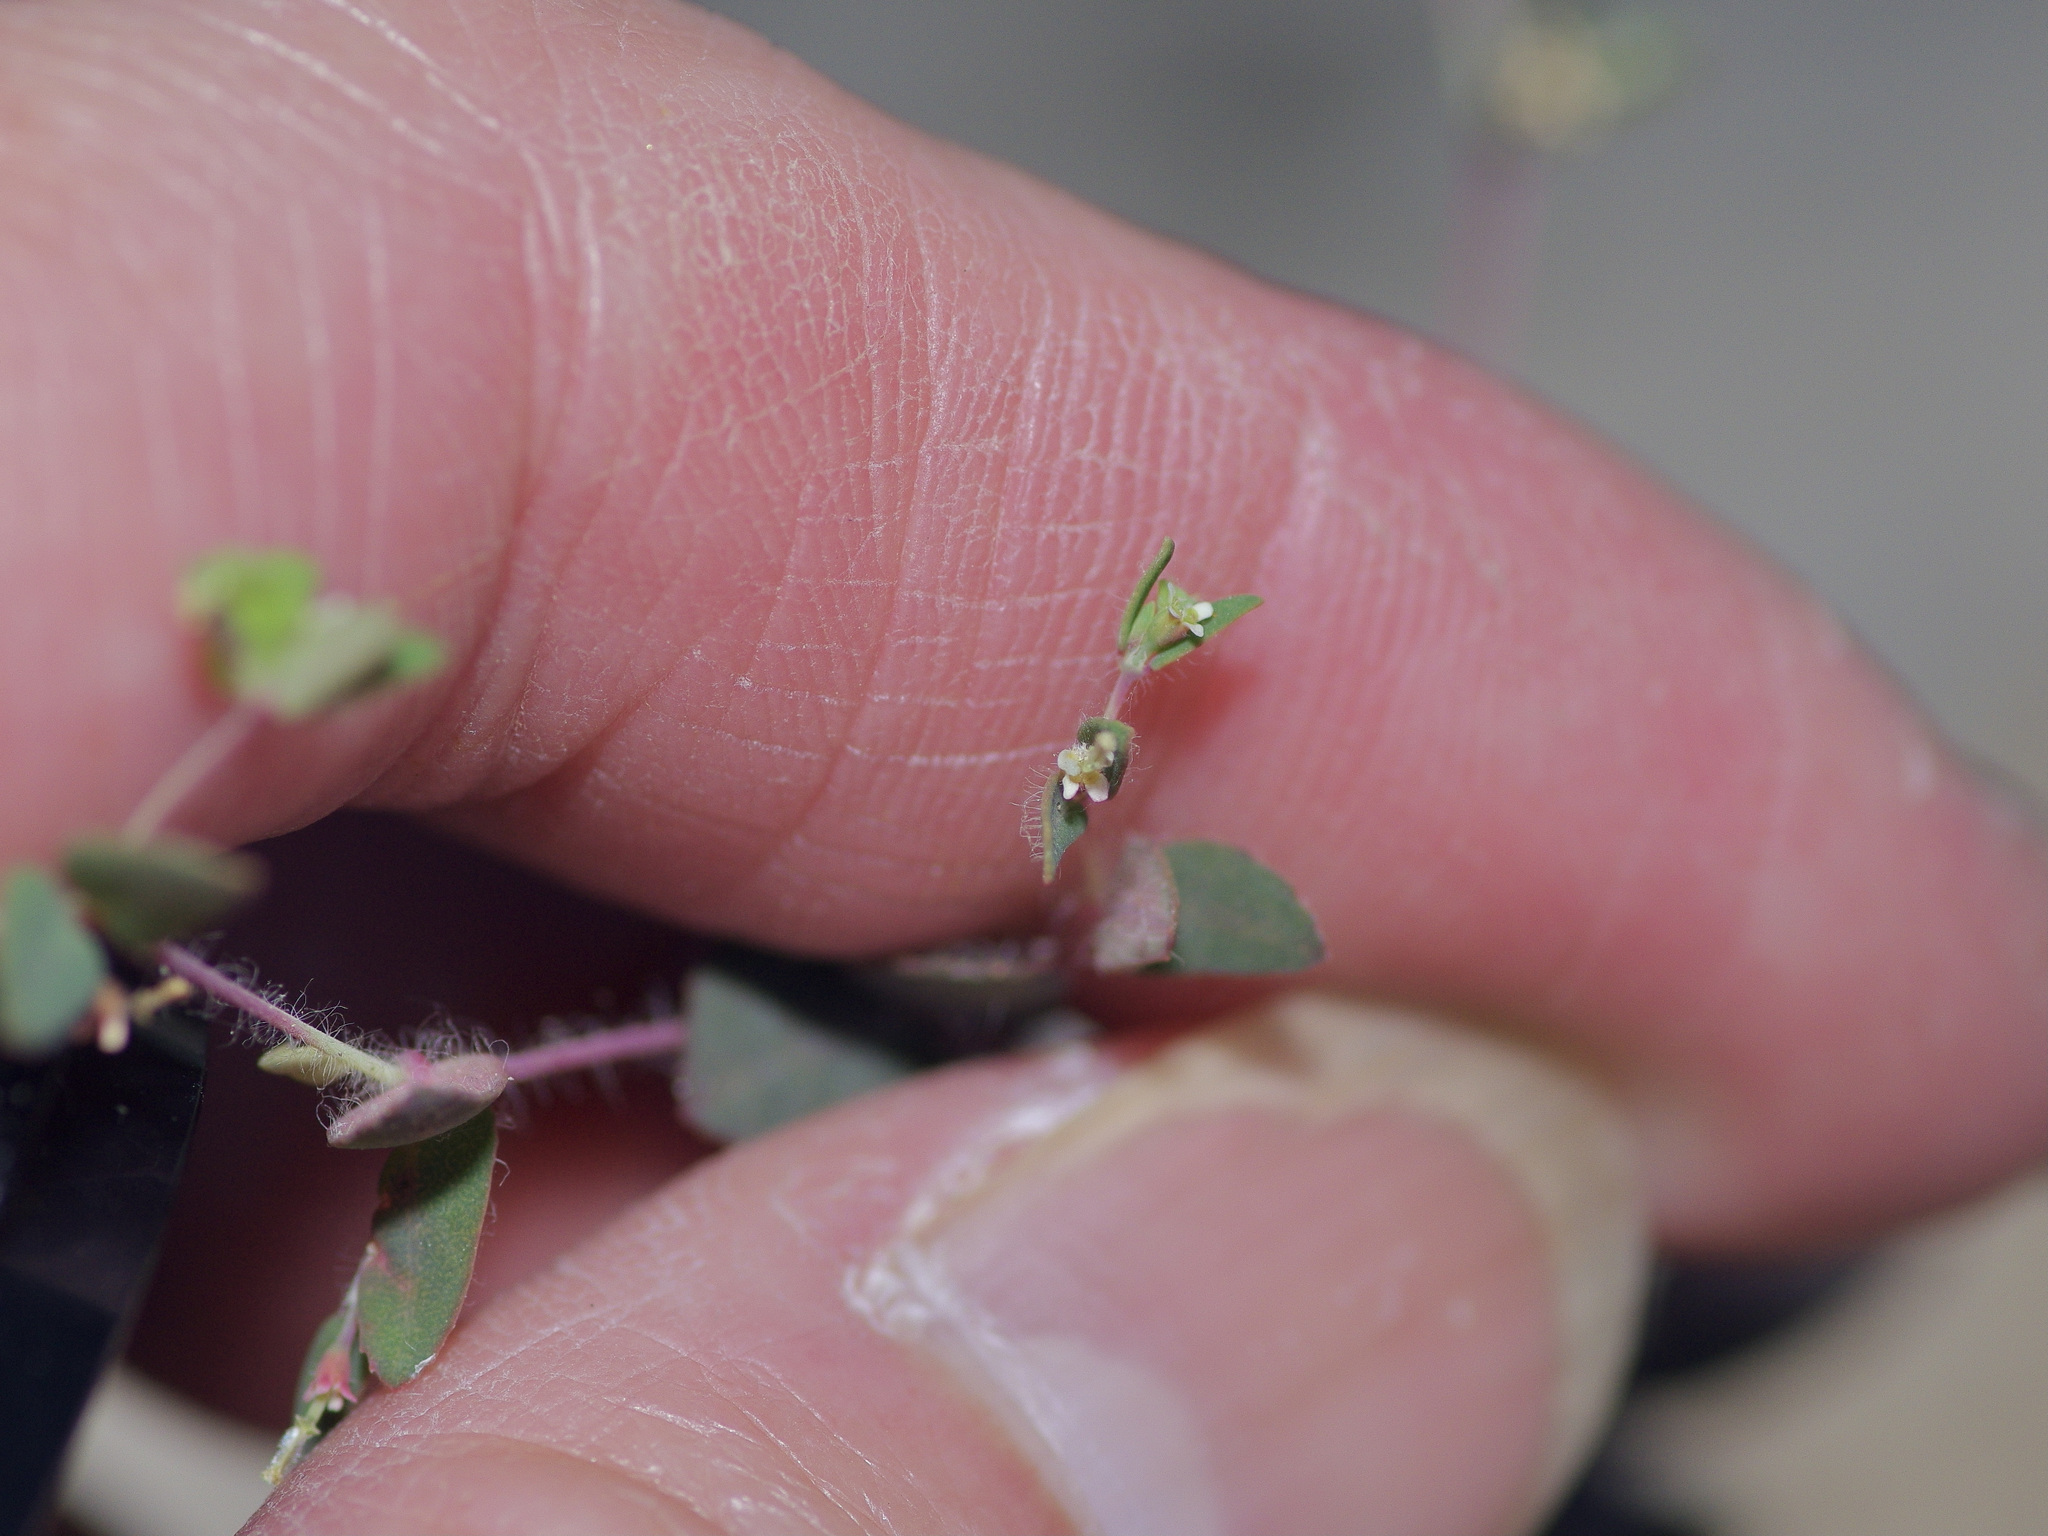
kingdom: Plantae
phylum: Tracheophyta
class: Magnoliopsida
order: Malpighiales
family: Euphorbiaceae
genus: Euphorbia
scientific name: Euphorbia villifera
